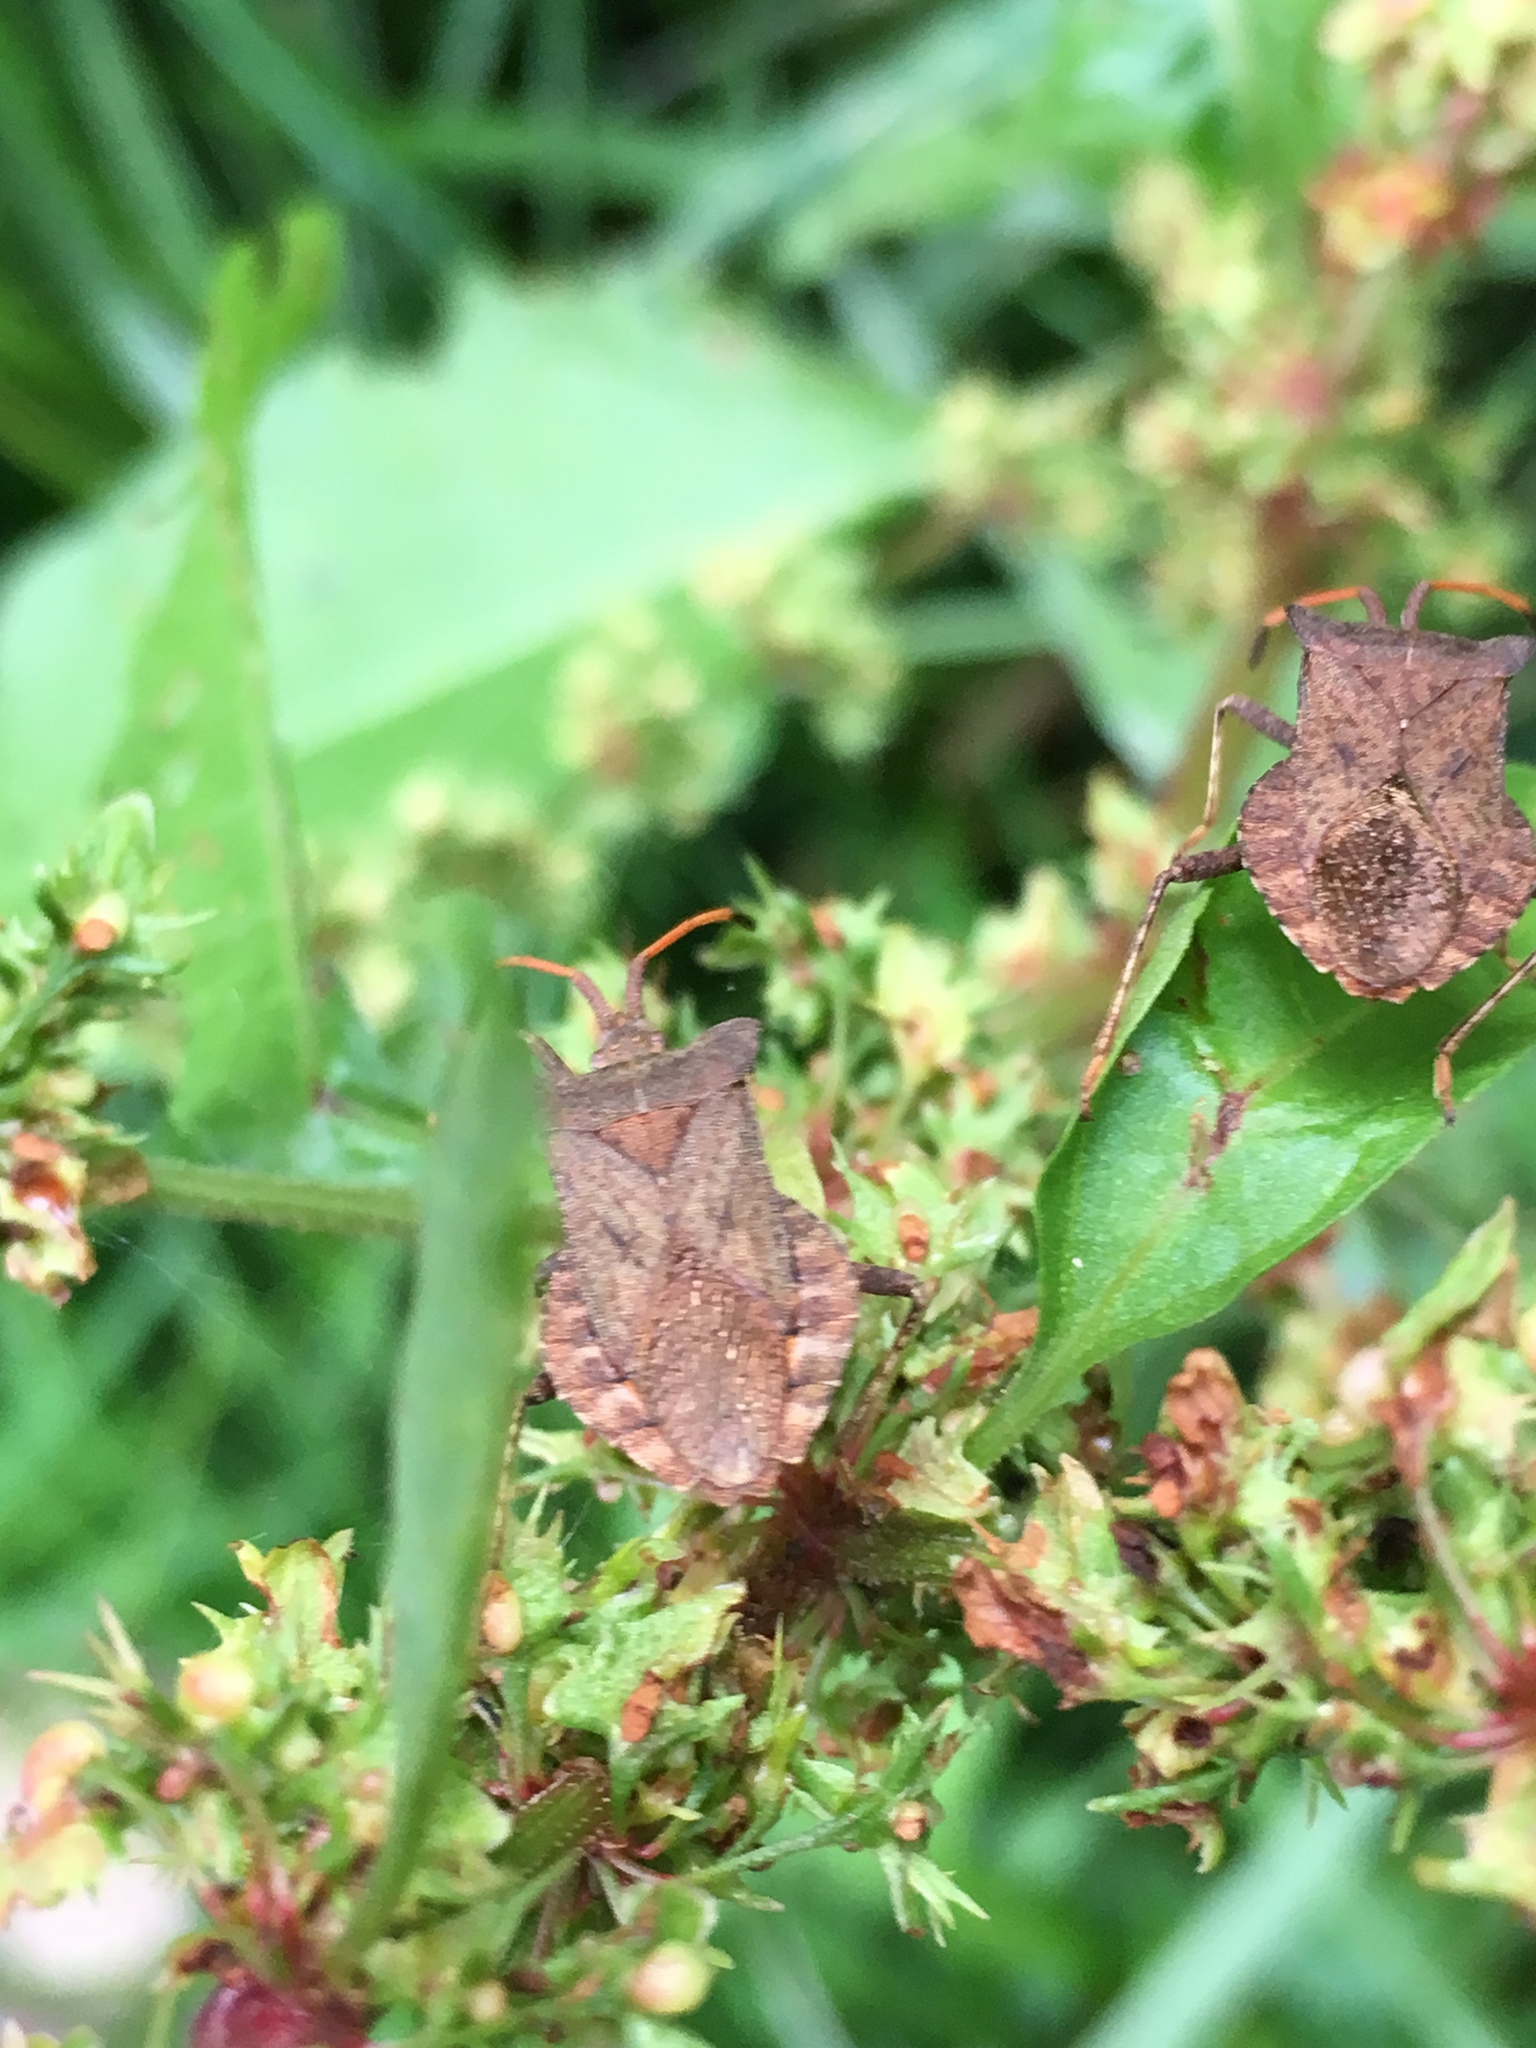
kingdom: Animalia
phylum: Arthropoda
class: Insecta
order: Hemiptera
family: Coreidae
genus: Coreus
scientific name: Coreus marginatus
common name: Dock bug
